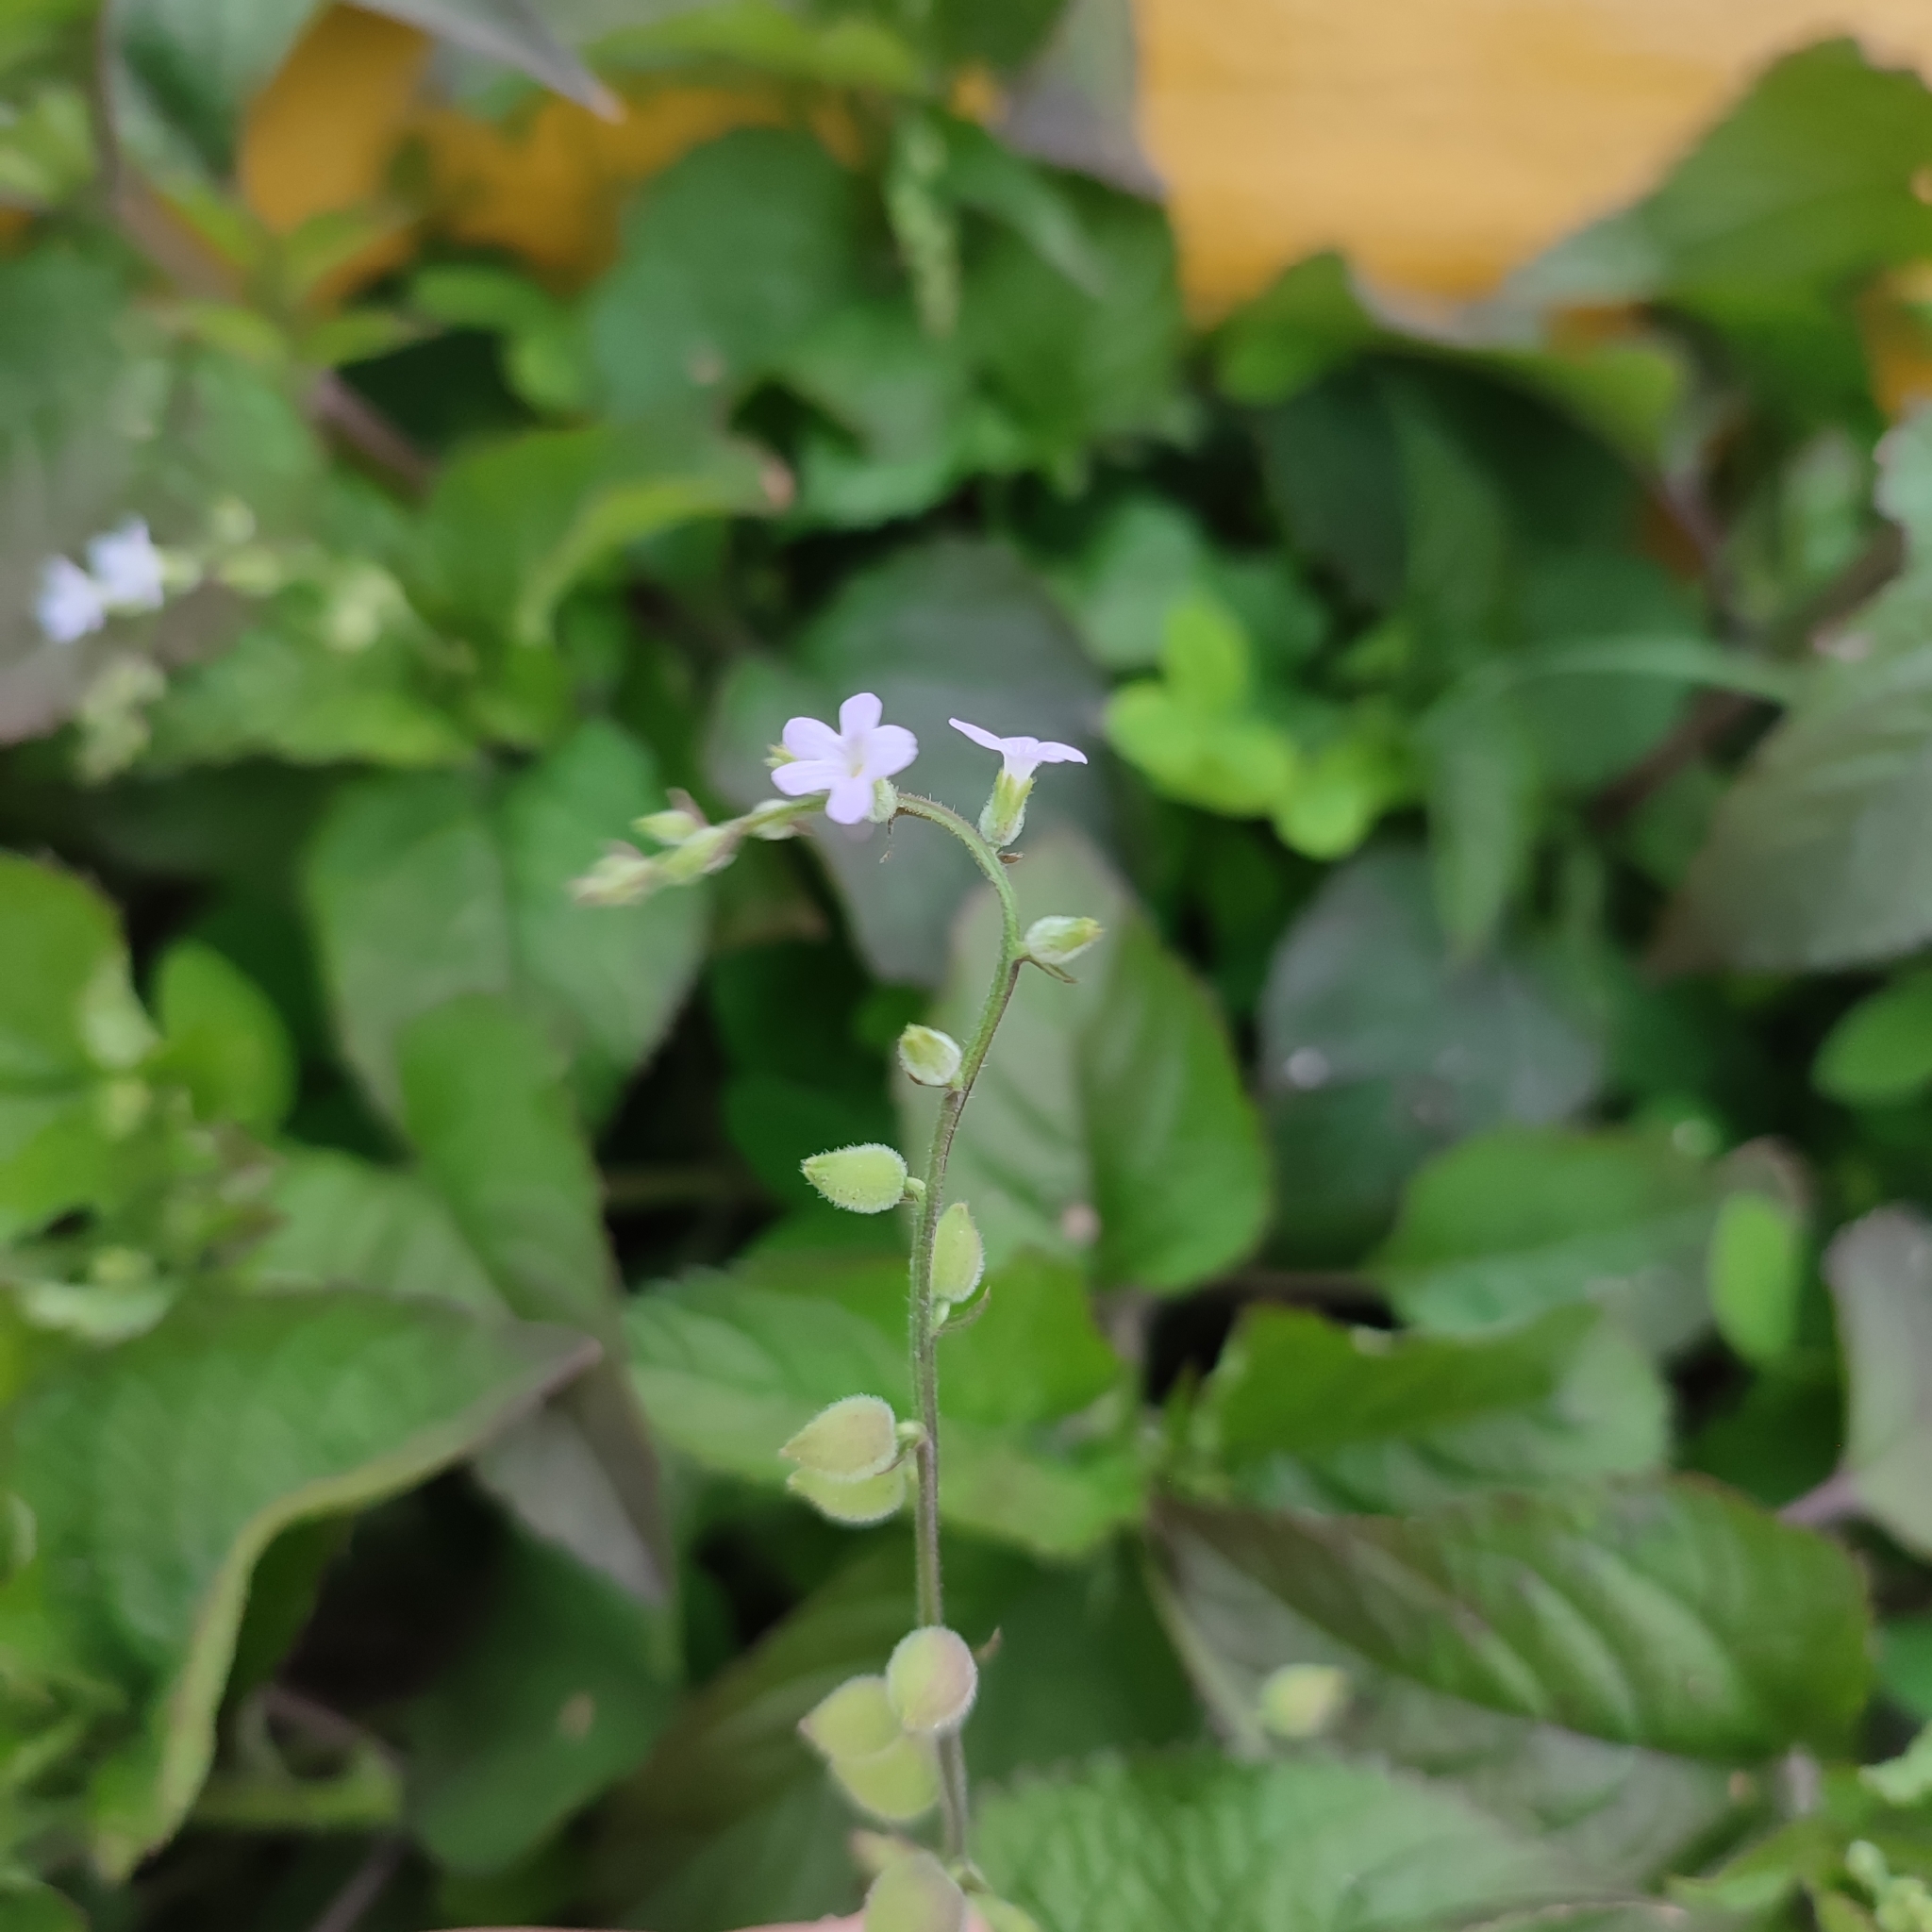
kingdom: Plantae
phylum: Tracheophyta
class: Magnoliopsida
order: Lamiales
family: Verbenaceae
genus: Priva
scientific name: Priva lappulacea
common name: Fasten-'pon-coat
